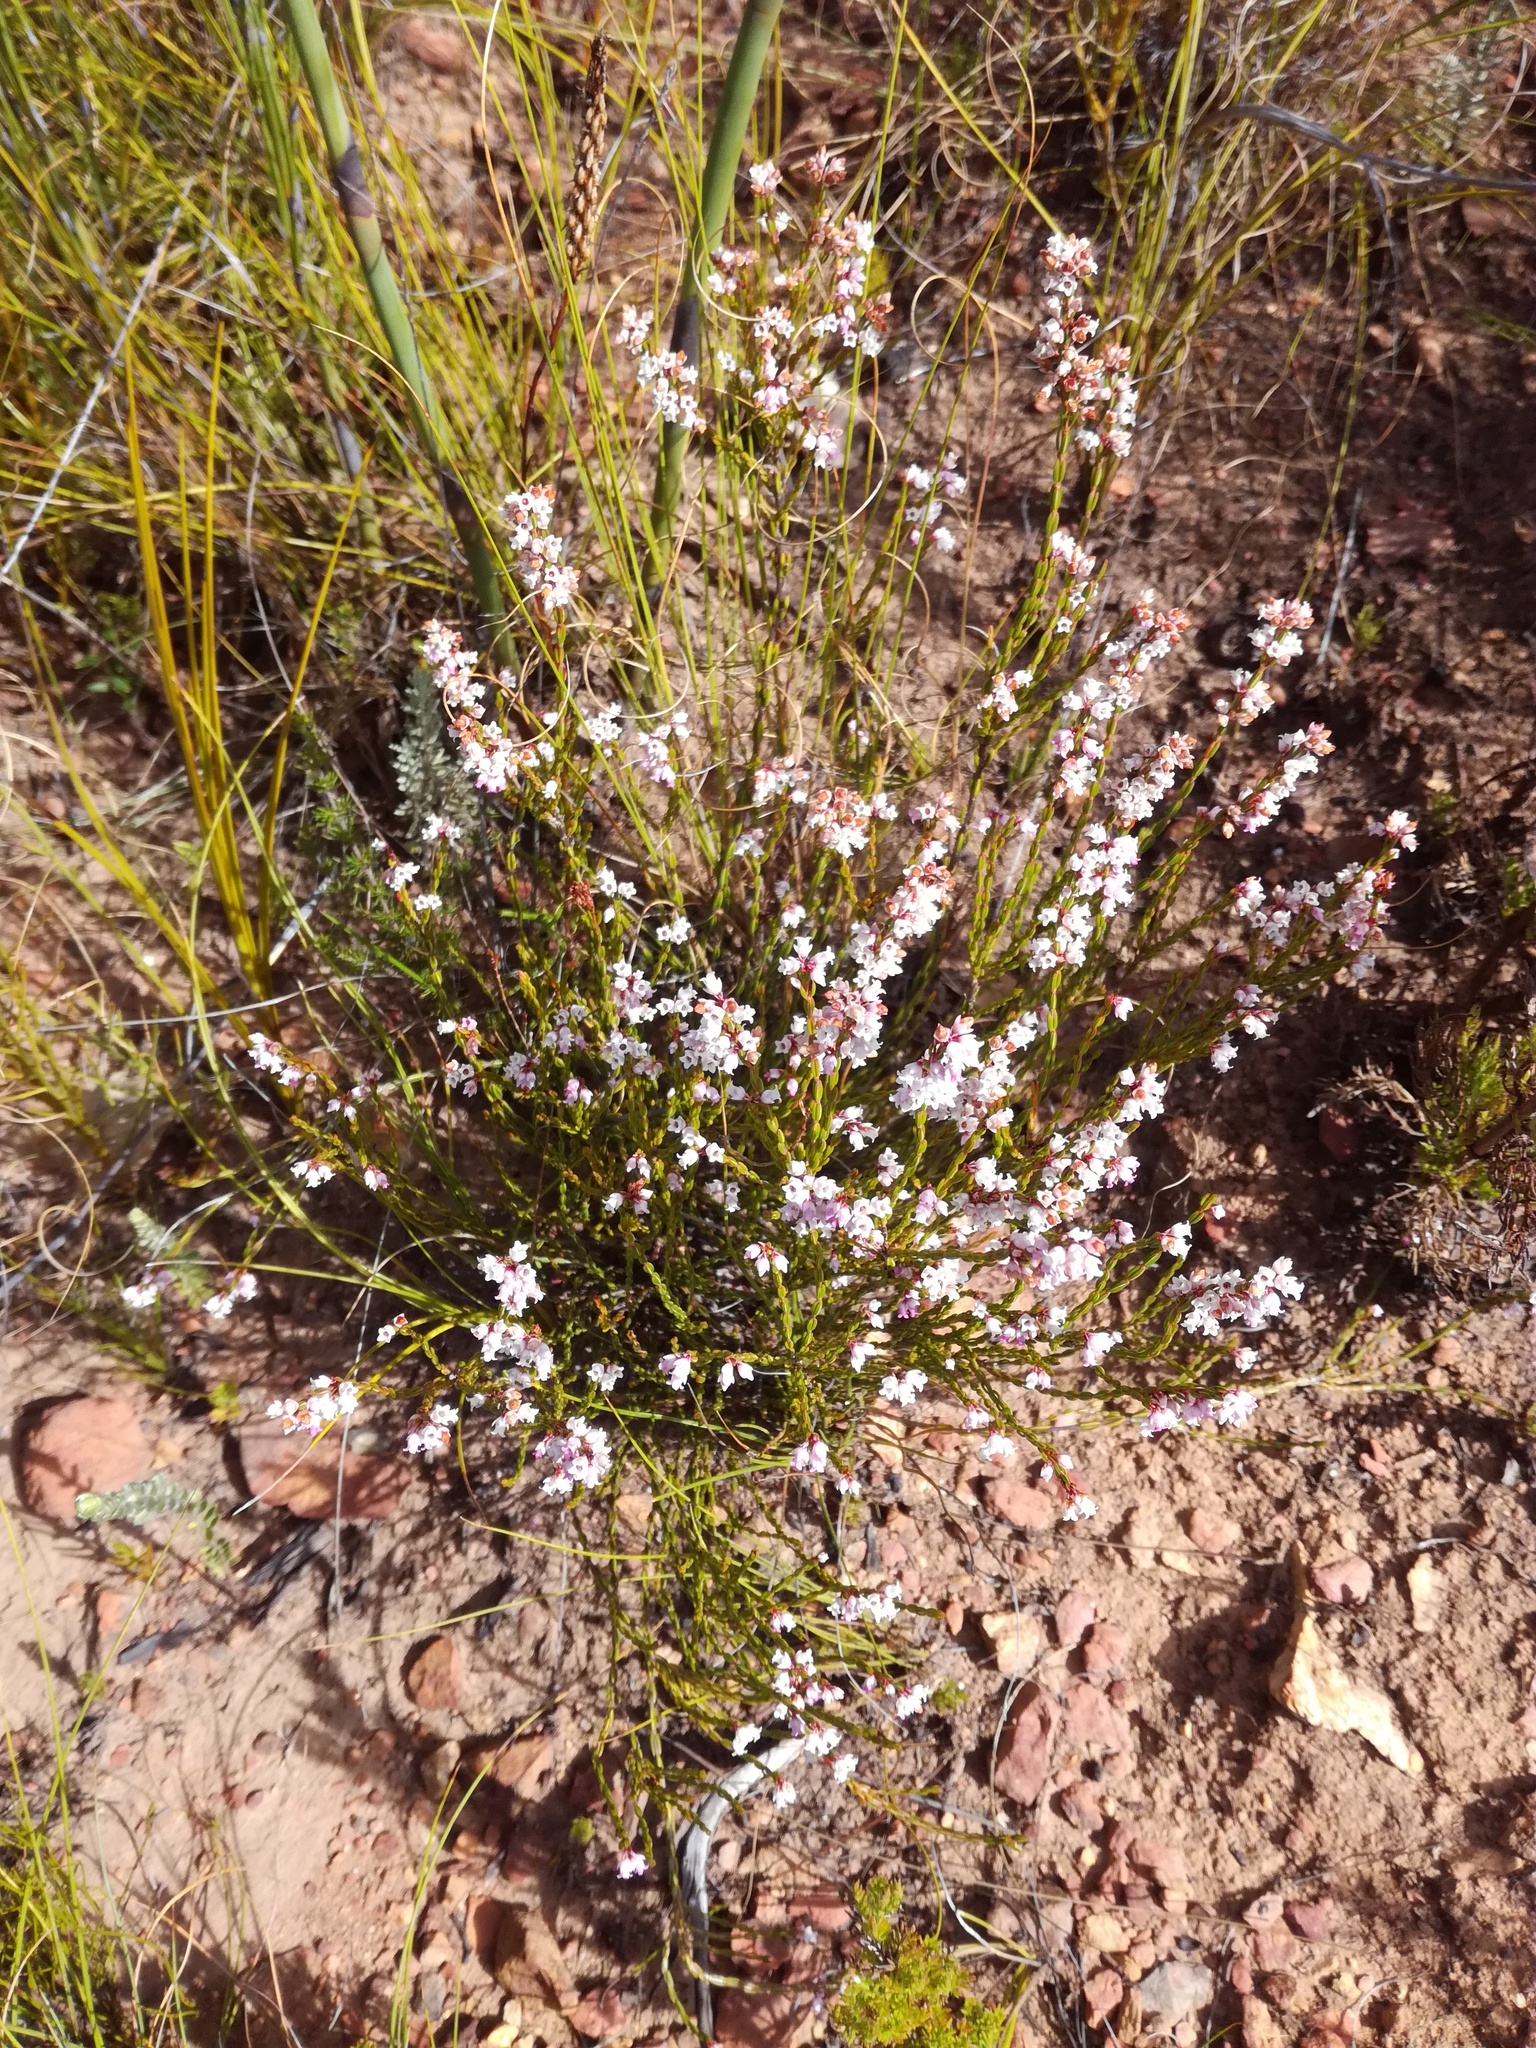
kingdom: Plantae
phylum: Tracheophyta
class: Magnoliopsida
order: Ericales
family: Ericaceae
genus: Erica
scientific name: Erica articularis
